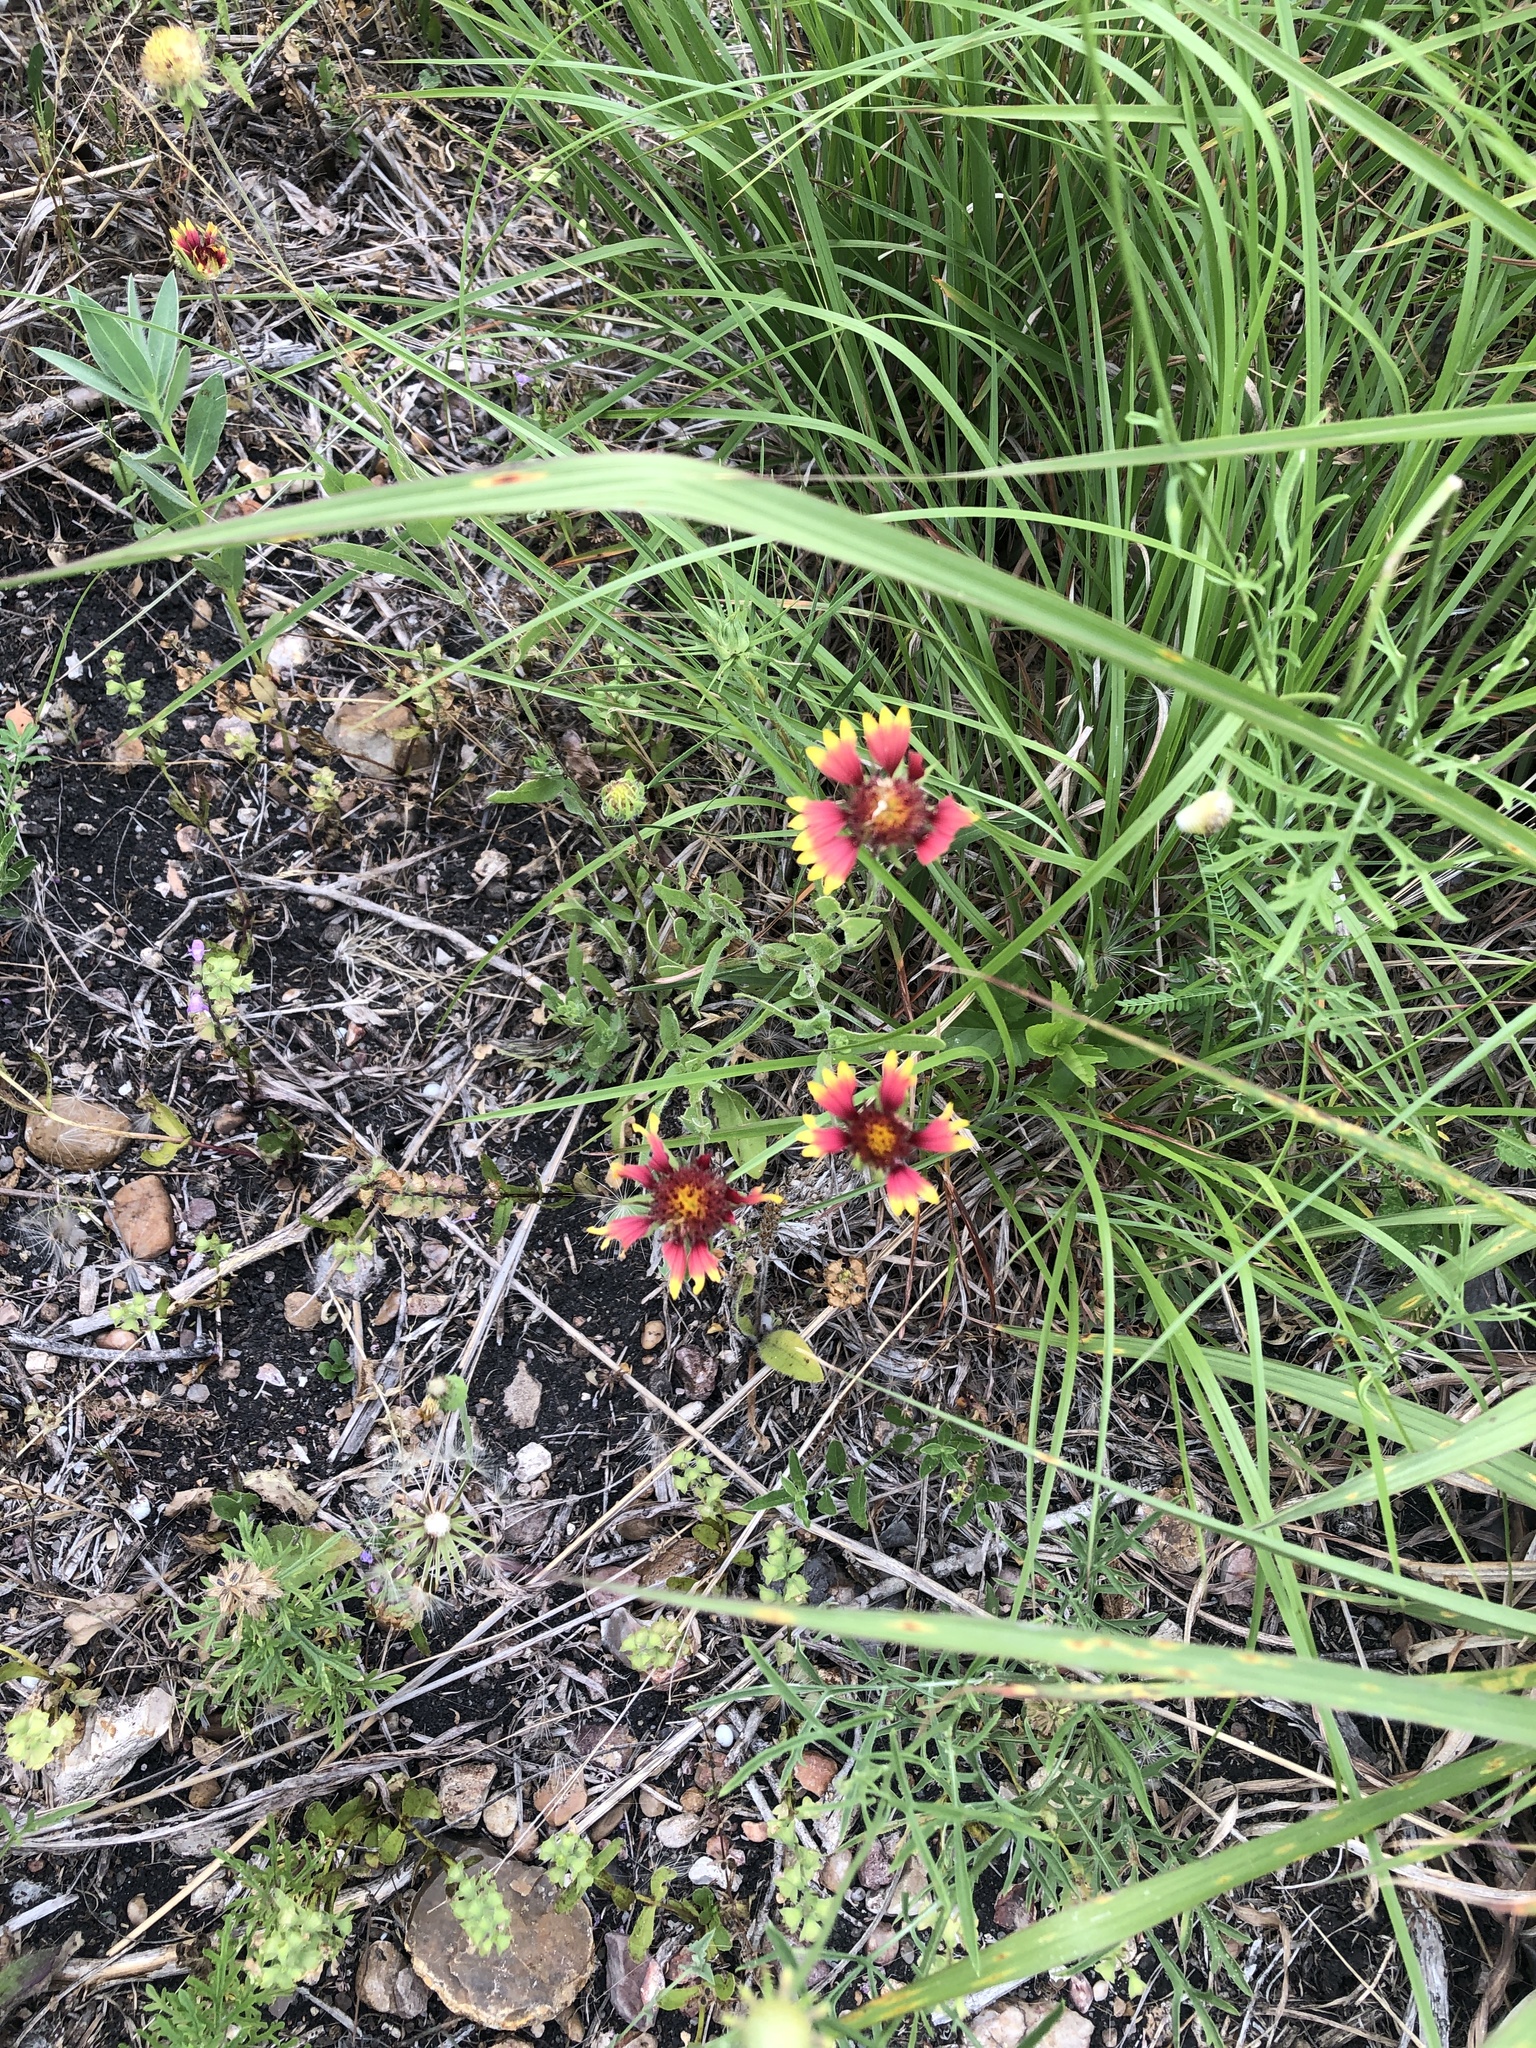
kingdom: Plantae
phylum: Tracheophyta
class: Magnoliopsida
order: Asterales
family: Asteraceae
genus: Gaillardia
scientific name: Gaillardia pulchella
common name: Firewheel
